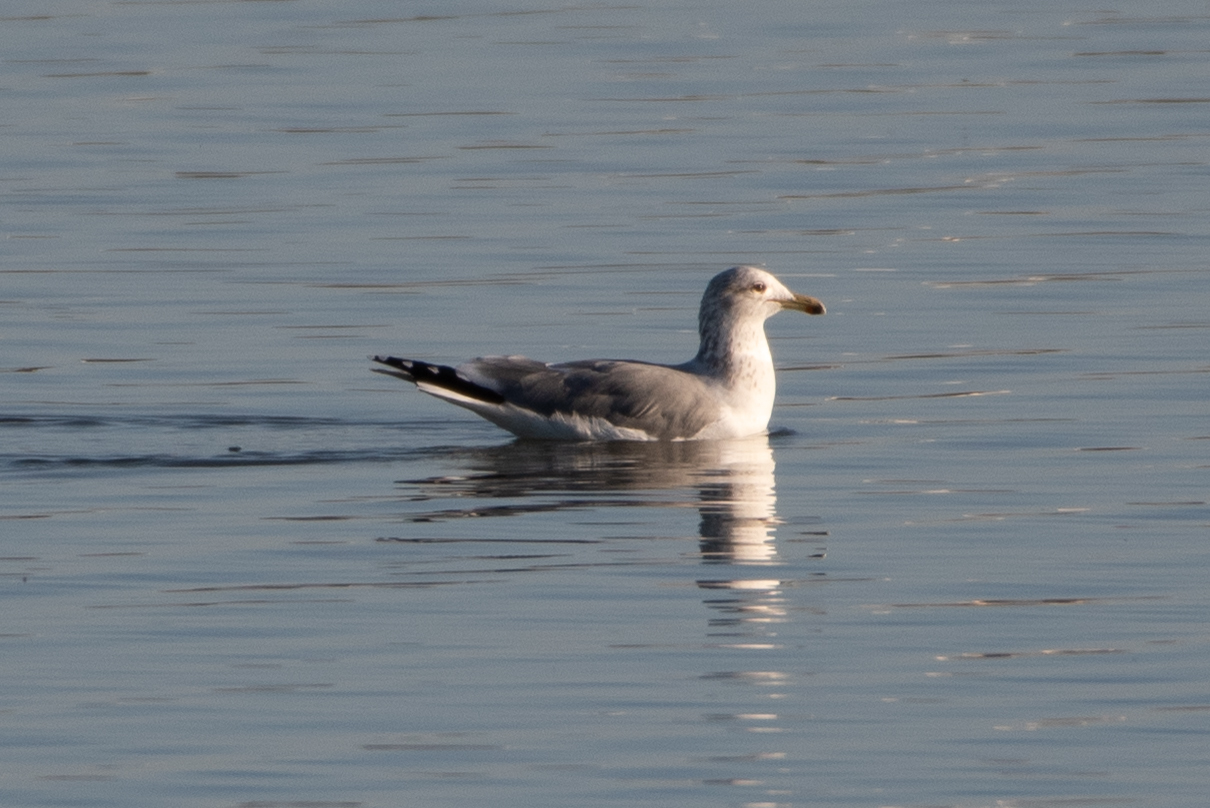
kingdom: Animalia
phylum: Chordata
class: Aves
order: Charadriiformes
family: Laridae
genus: Larus
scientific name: Larus californicus
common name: California gull
